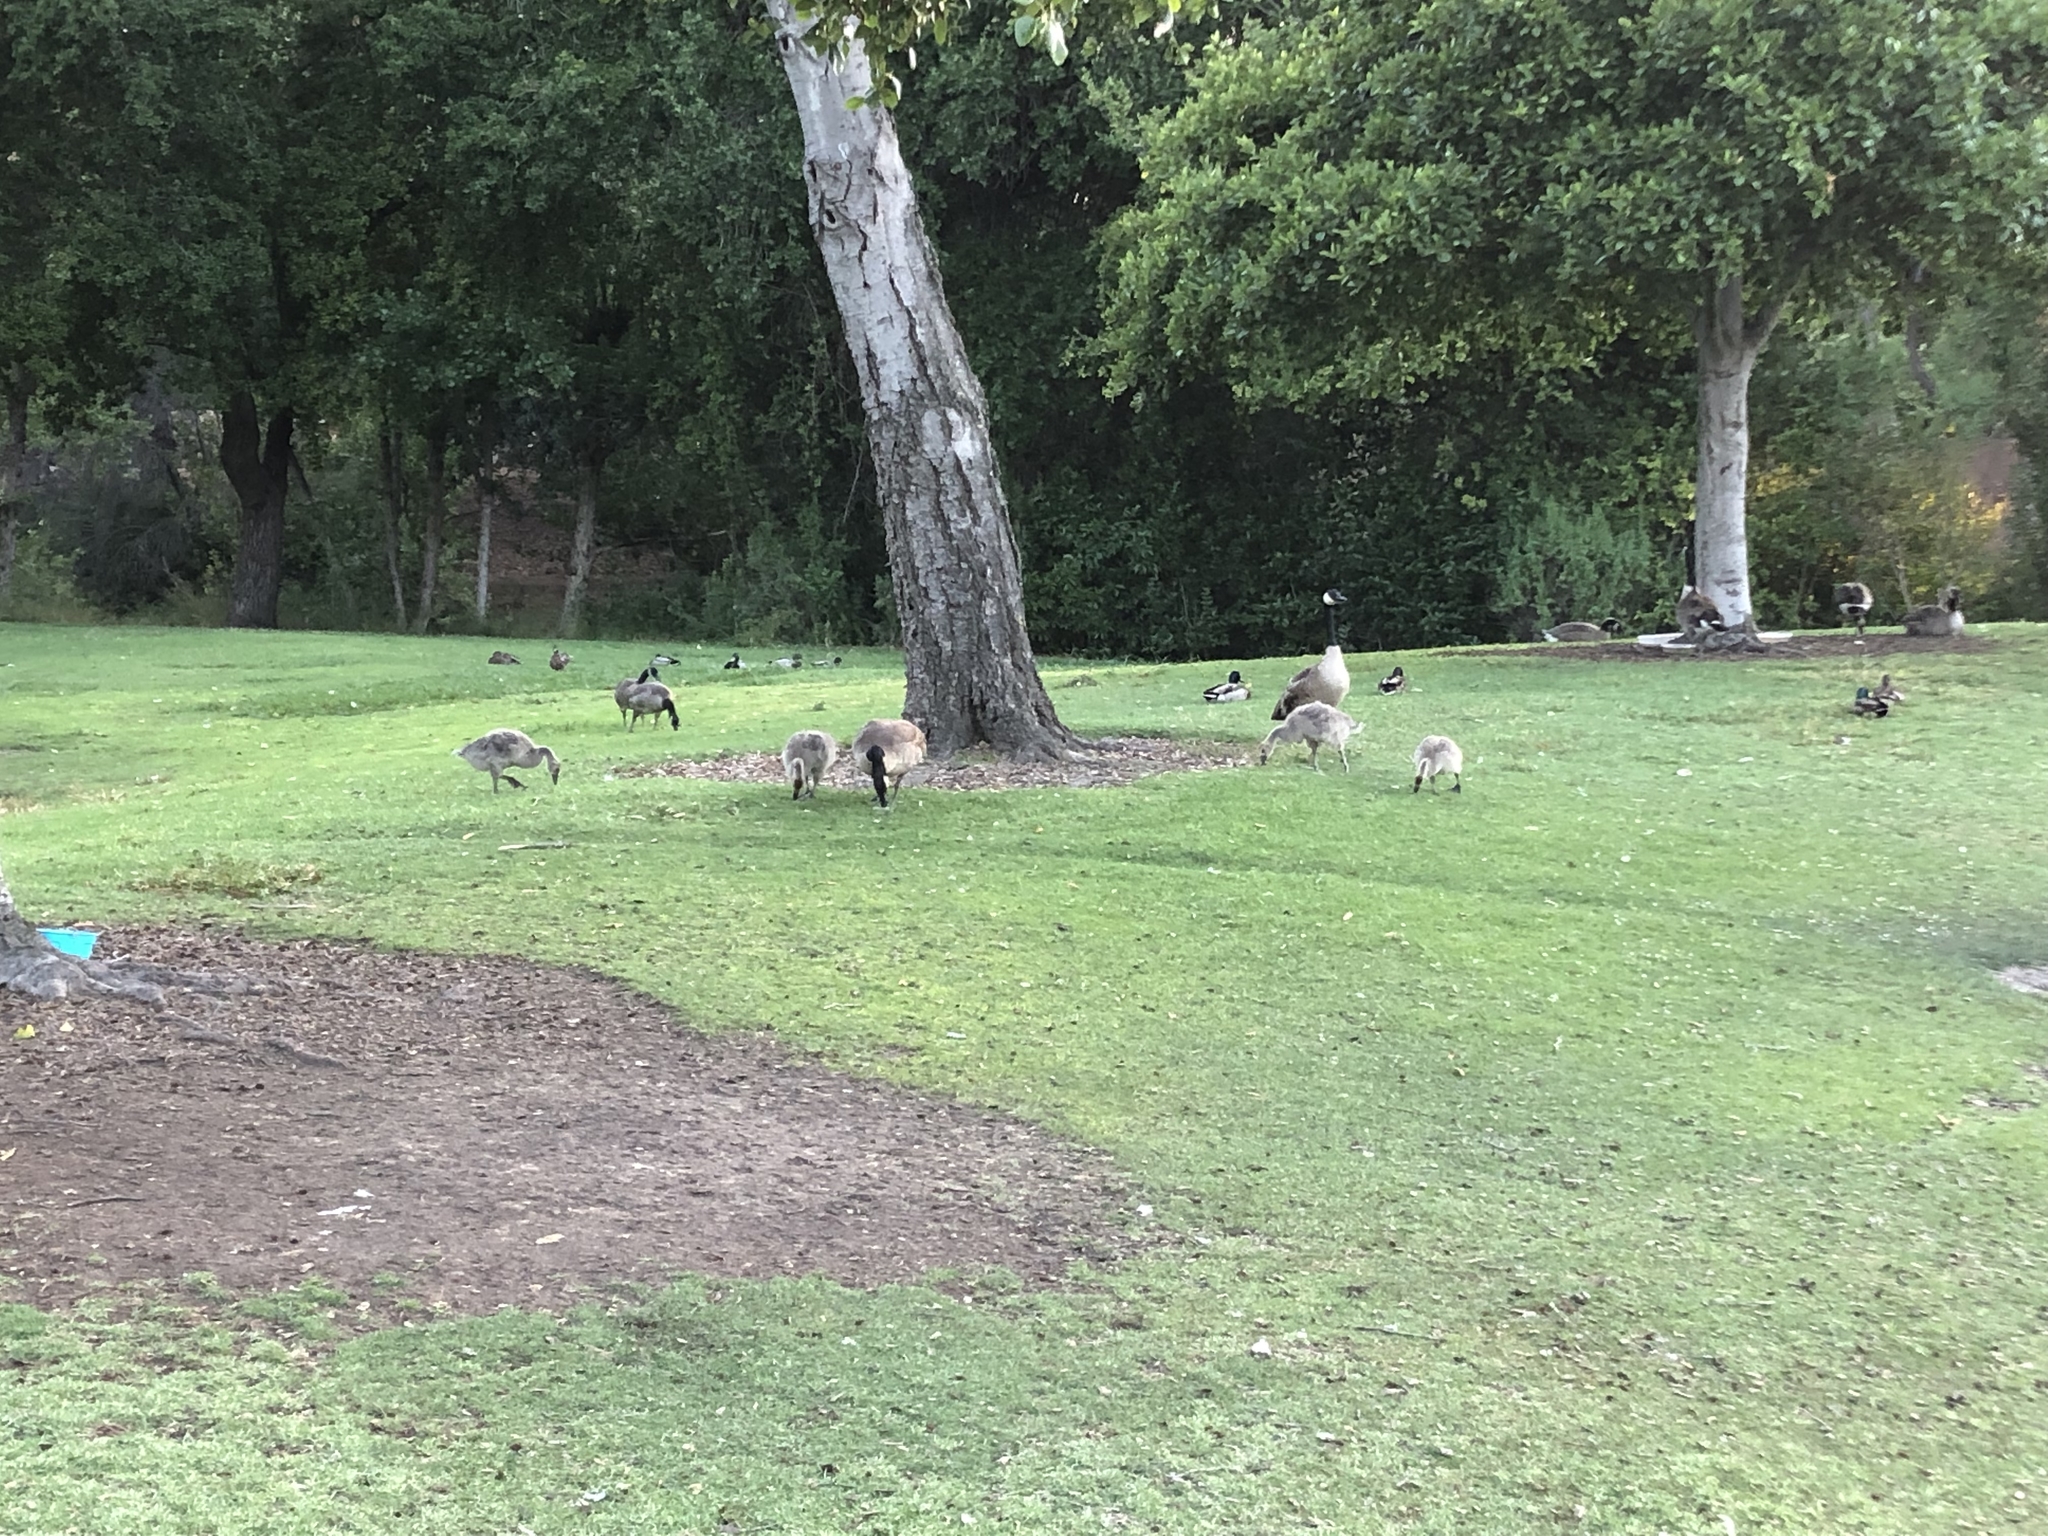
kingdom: Animalia
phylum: Chordata
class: Aves
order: Anseriformes
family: Anatidae
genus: Branta
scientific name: Branta canadensis
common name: Canada goose
